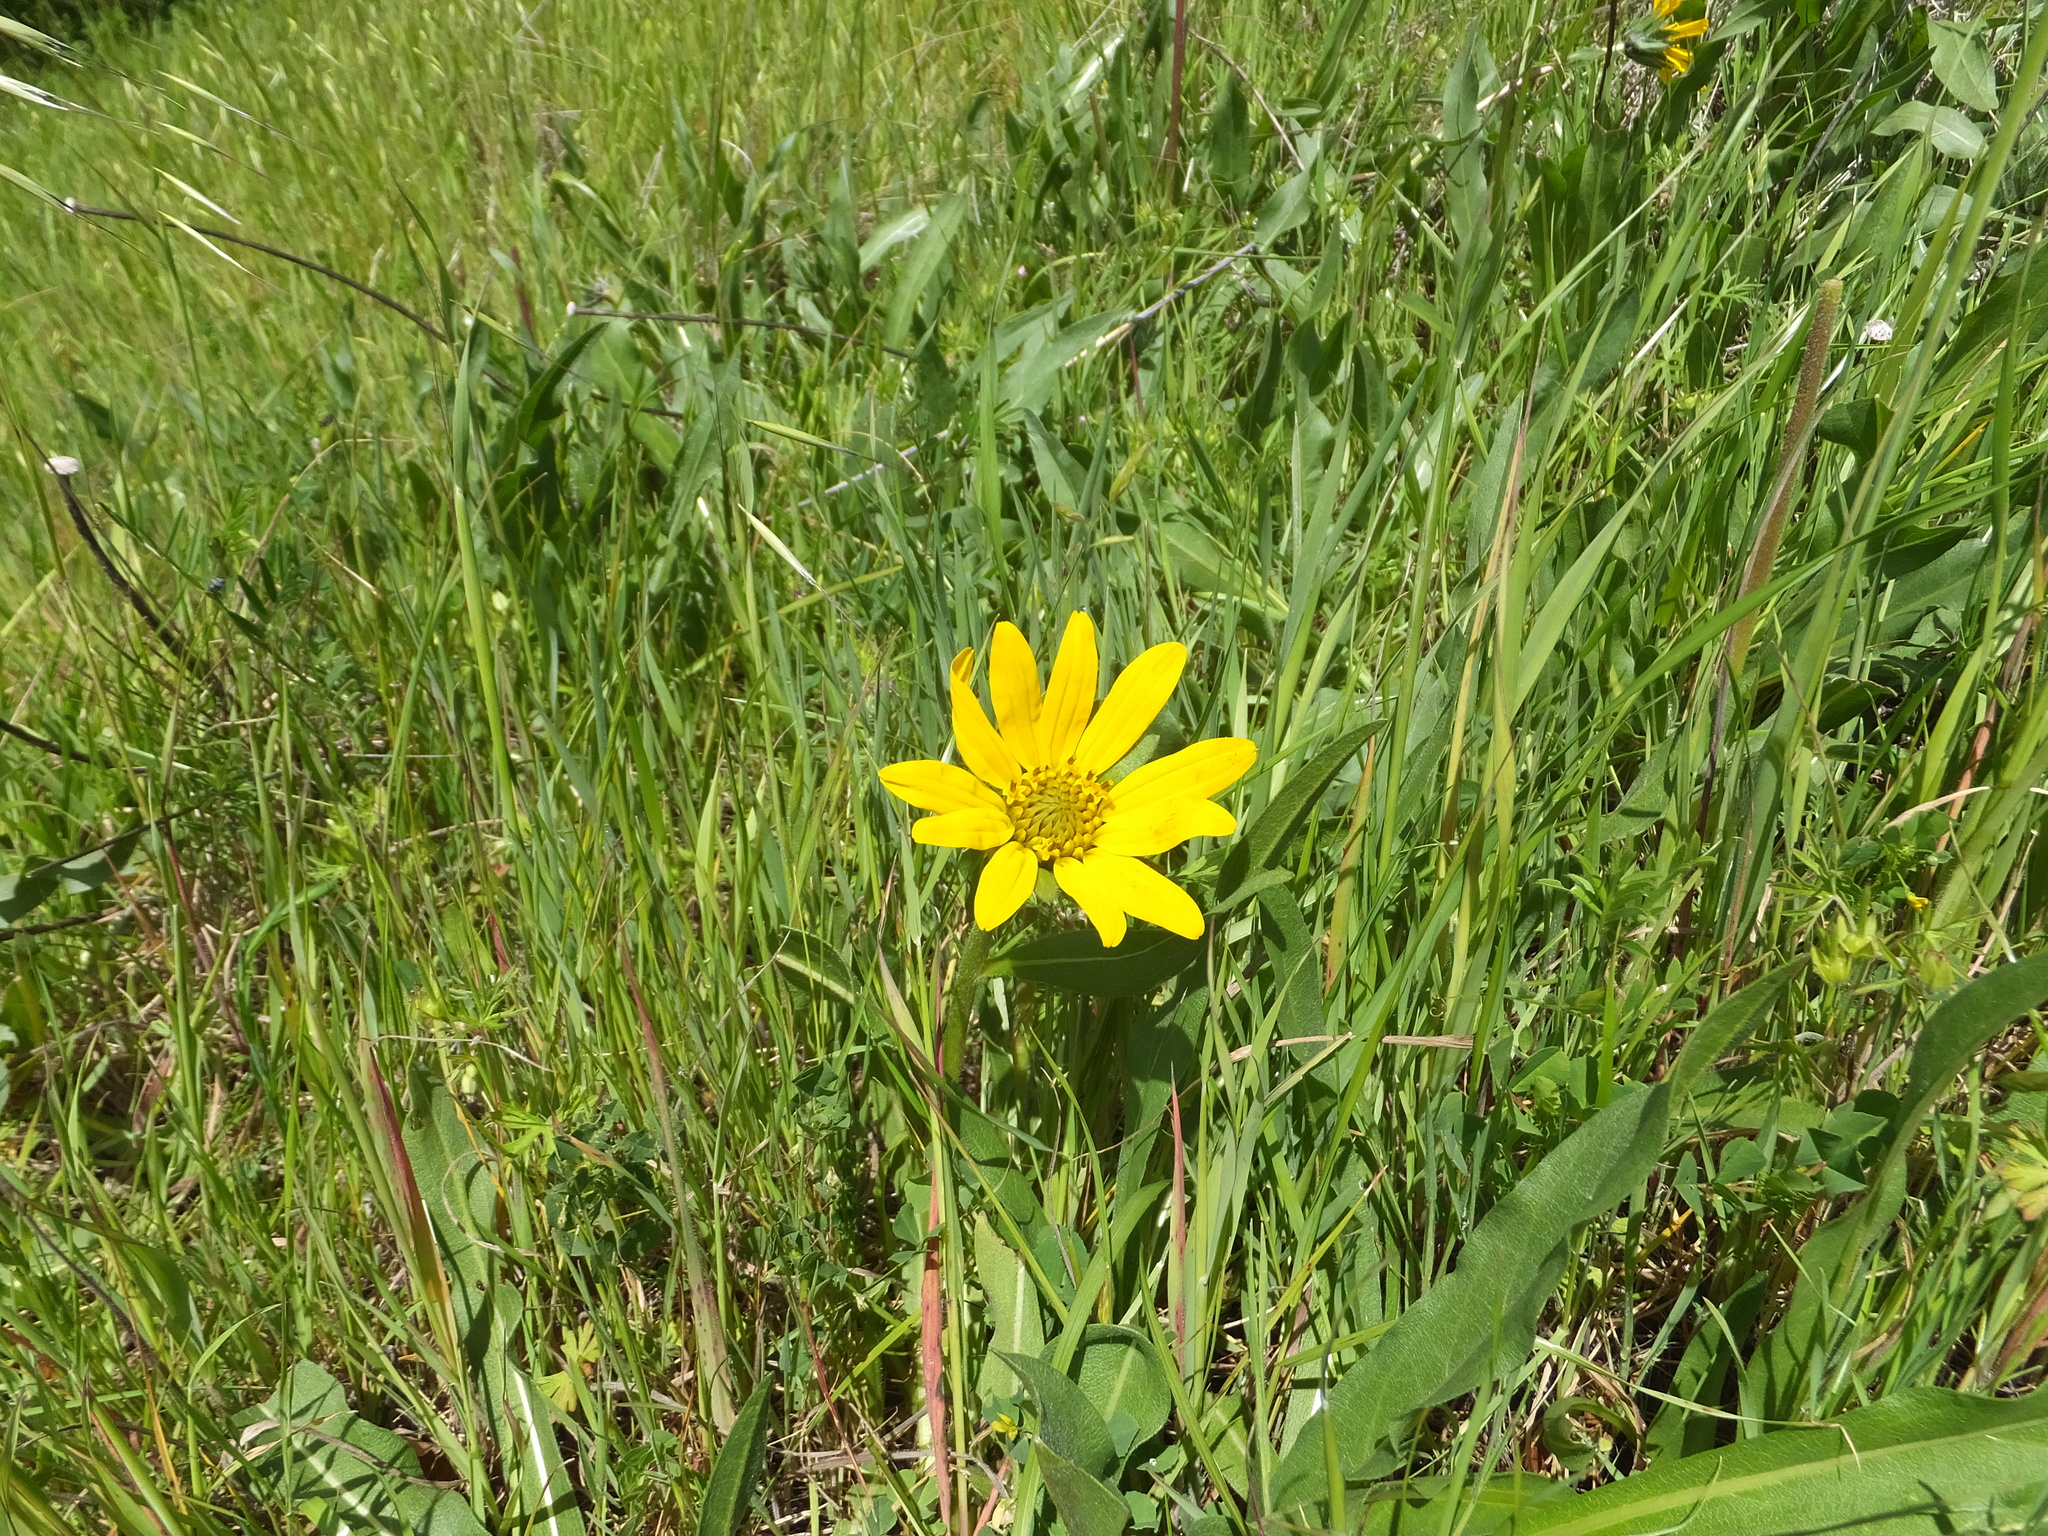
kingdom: Plantae
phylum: Tracheophyta
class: Magnoliopsida
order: Asterales
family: Asteraceae
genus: Wyethia
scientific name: Wyethia angustifolia
